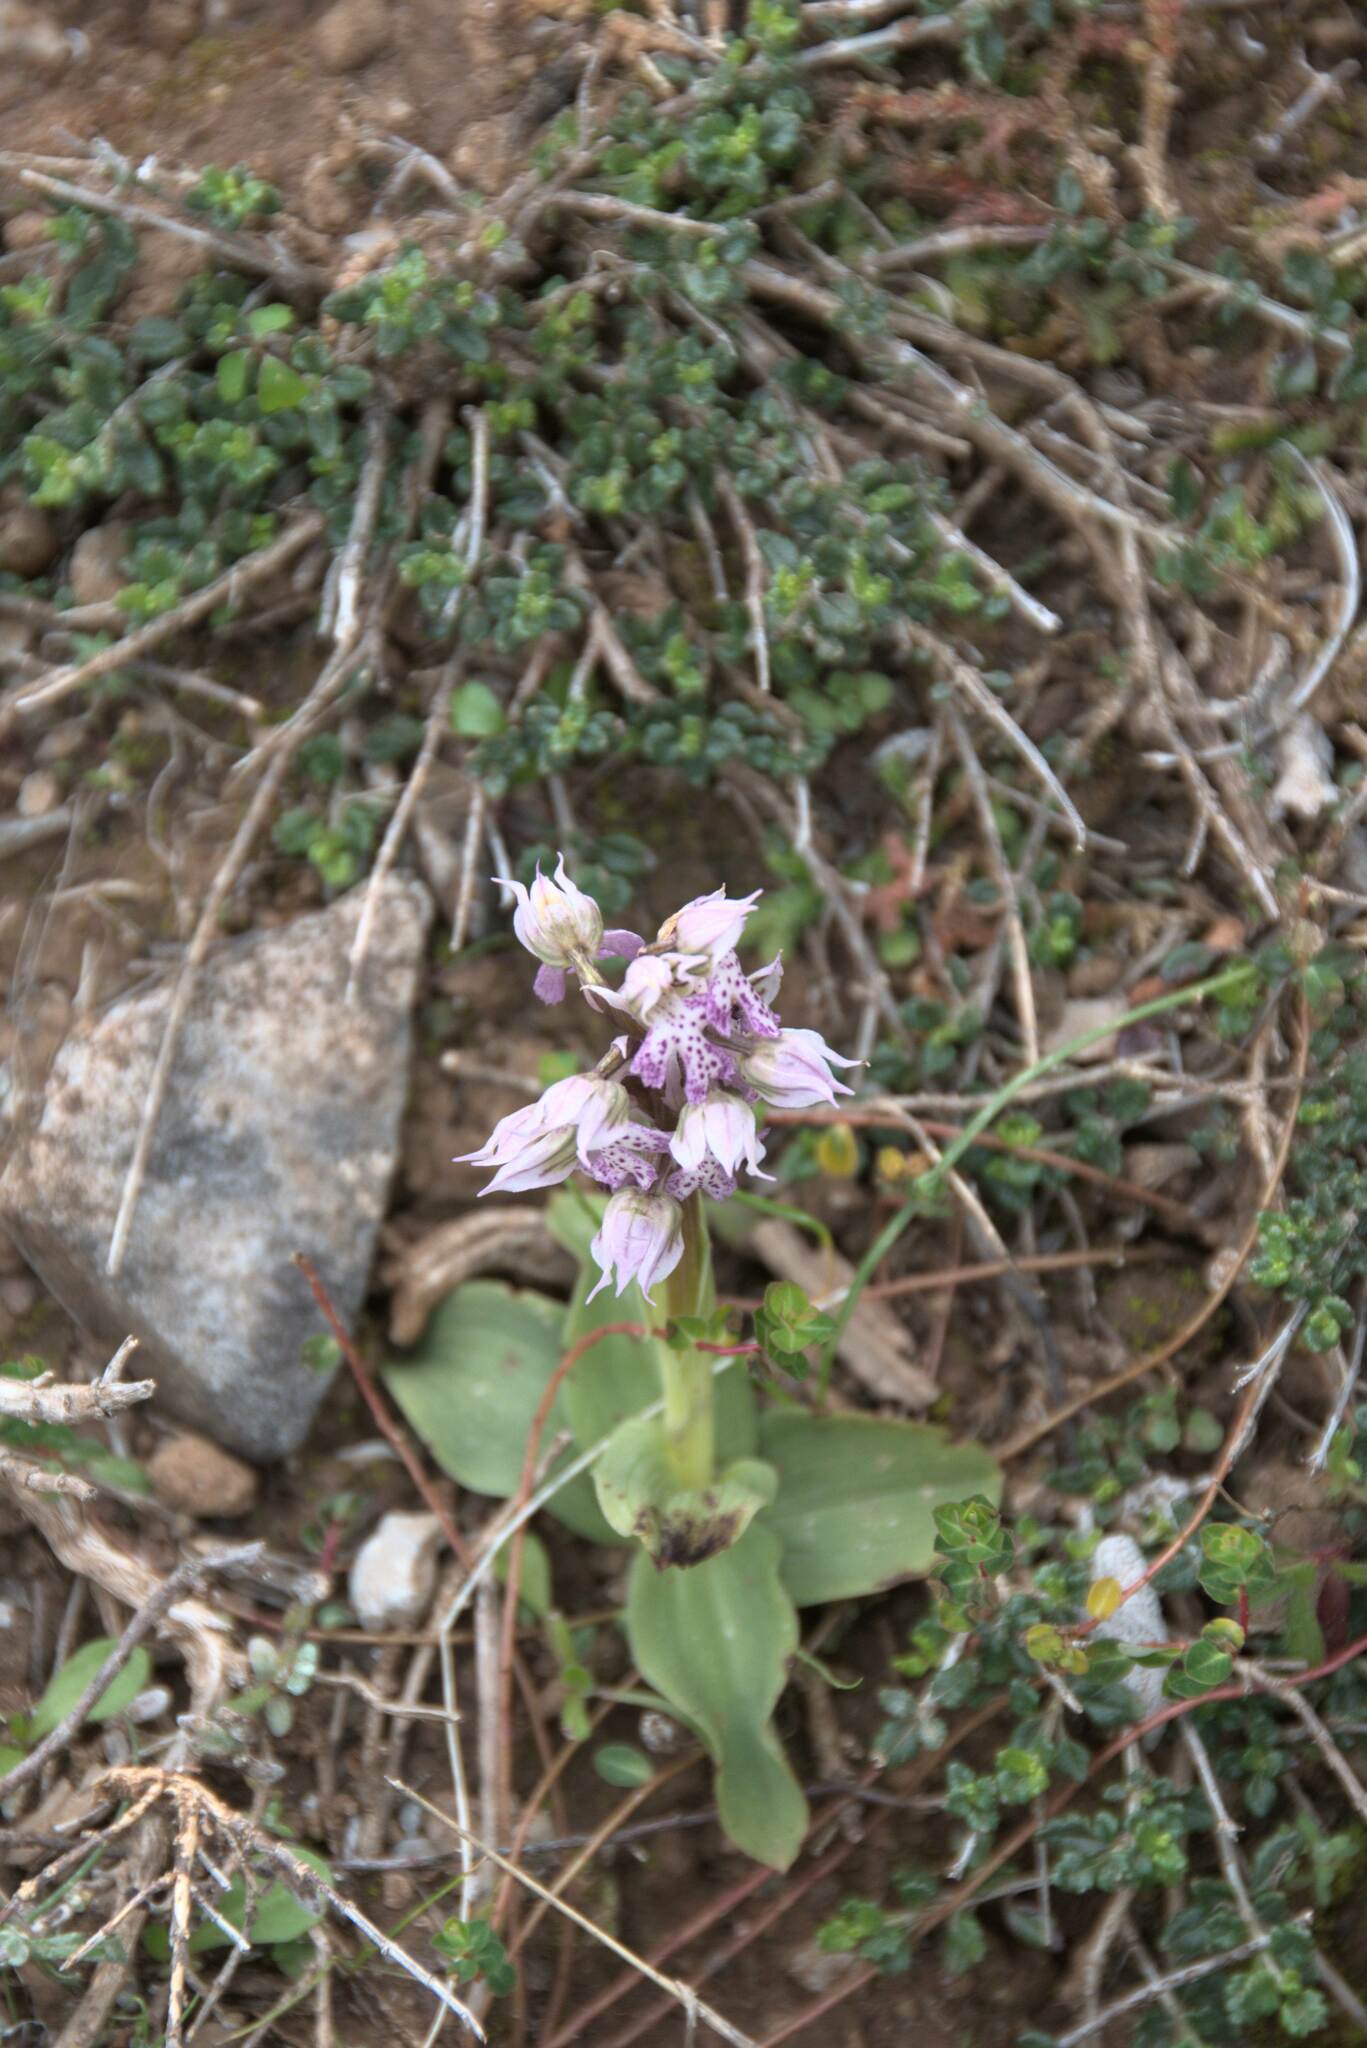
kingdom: Plantae
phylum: Tracheophyta
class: Liliopsida
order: Asparagales
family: Orchidaceae
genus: Neotinea
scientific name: Neotinea lactea
